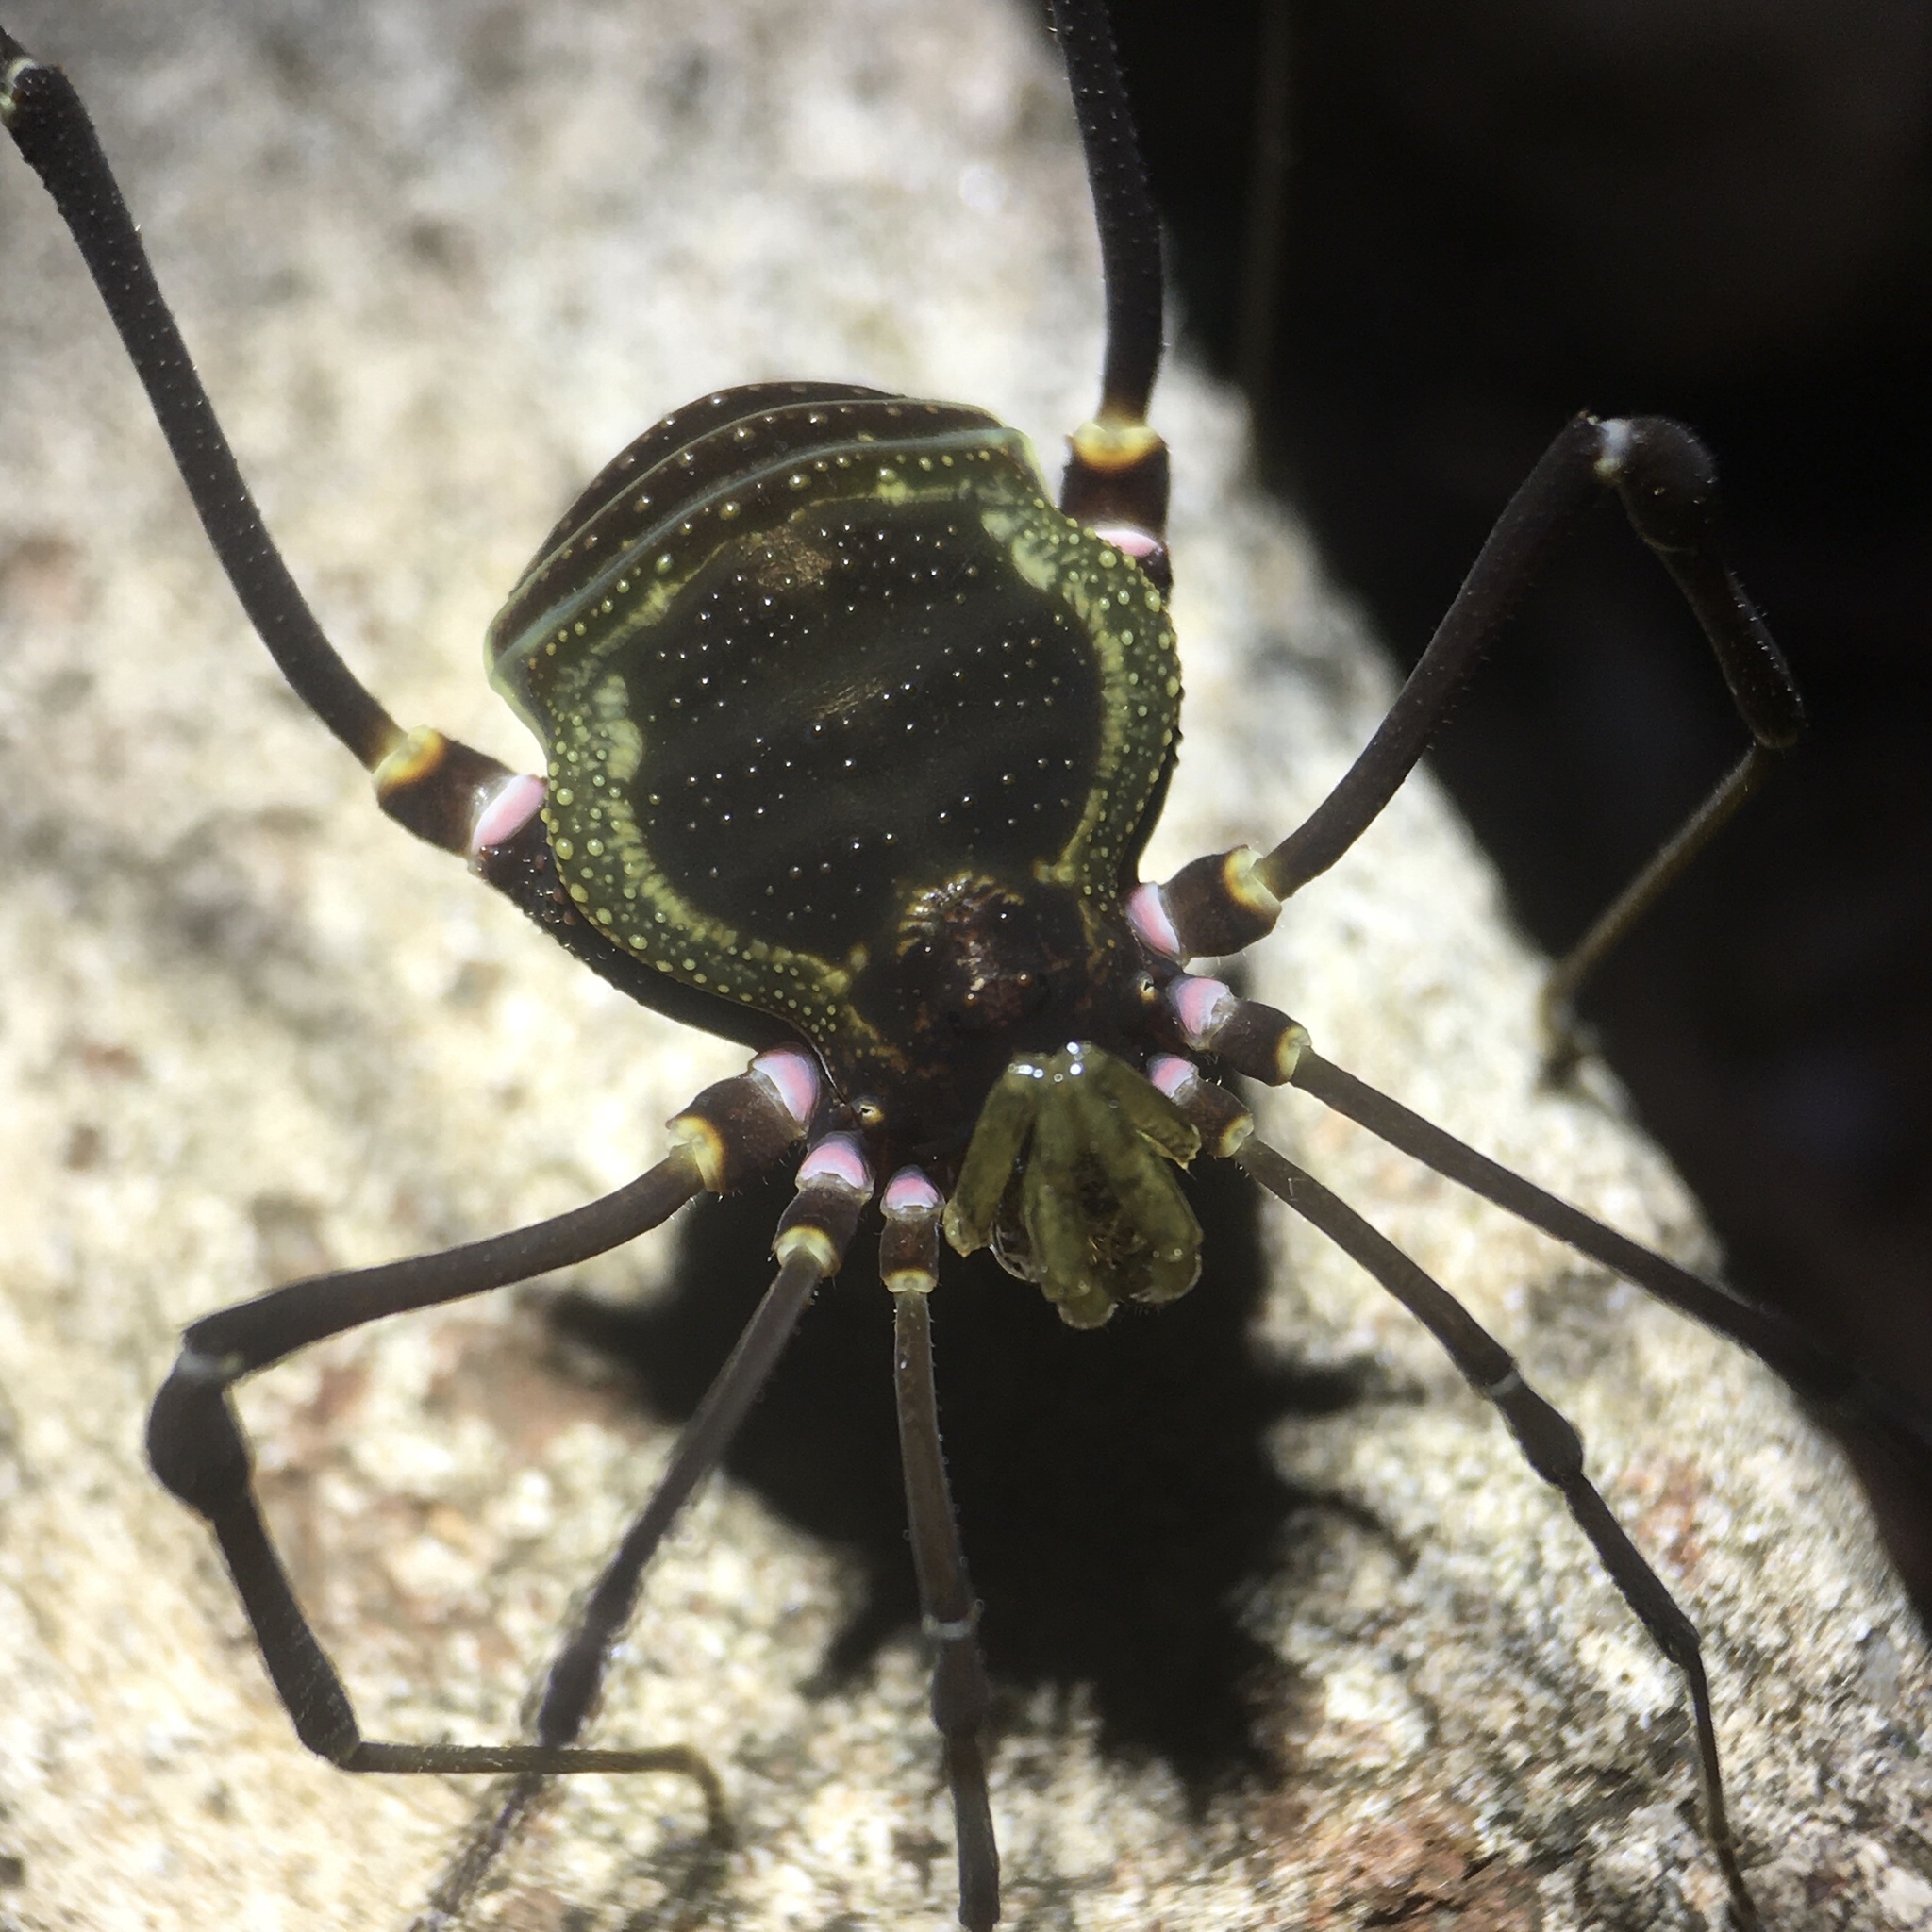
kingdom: Animalia
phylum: Arthropoda
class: Arachnida
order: Opiliones
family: Gonyleptidae
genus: Geraeocormobius
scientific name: Geraeocormobius sylvarum
